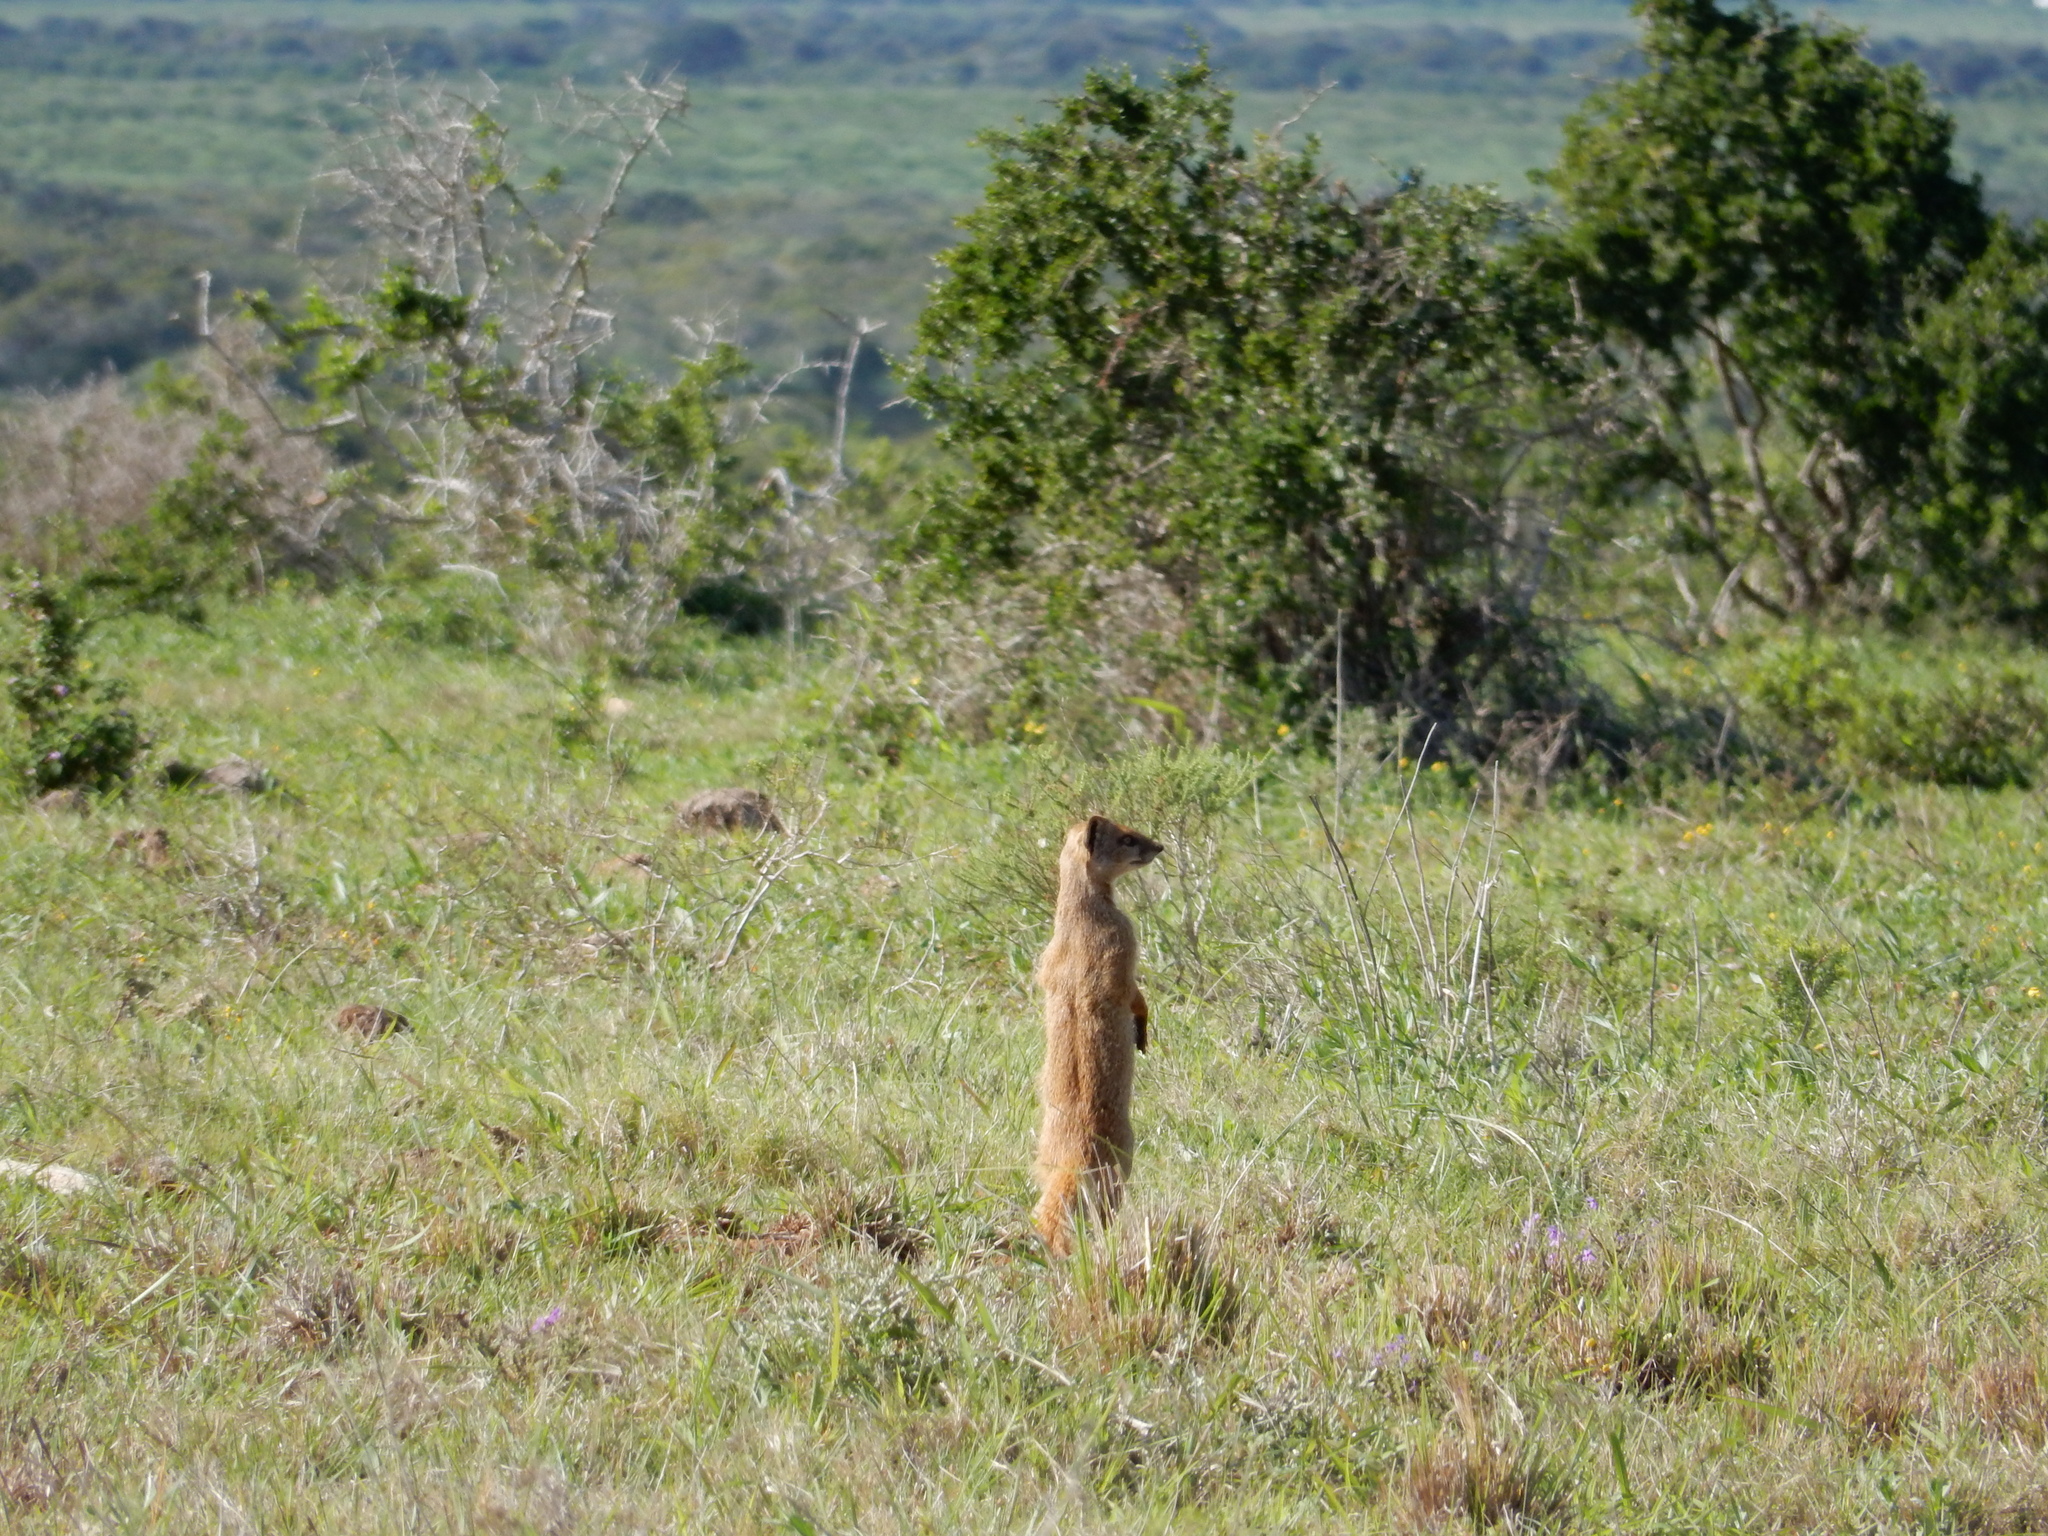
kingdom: Animalia
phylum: Chordata
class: Mammalia
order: Carnivora
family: Herpestidae
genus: Cynictis
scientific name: Cynictis penicillata
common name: Yellow mongoose
